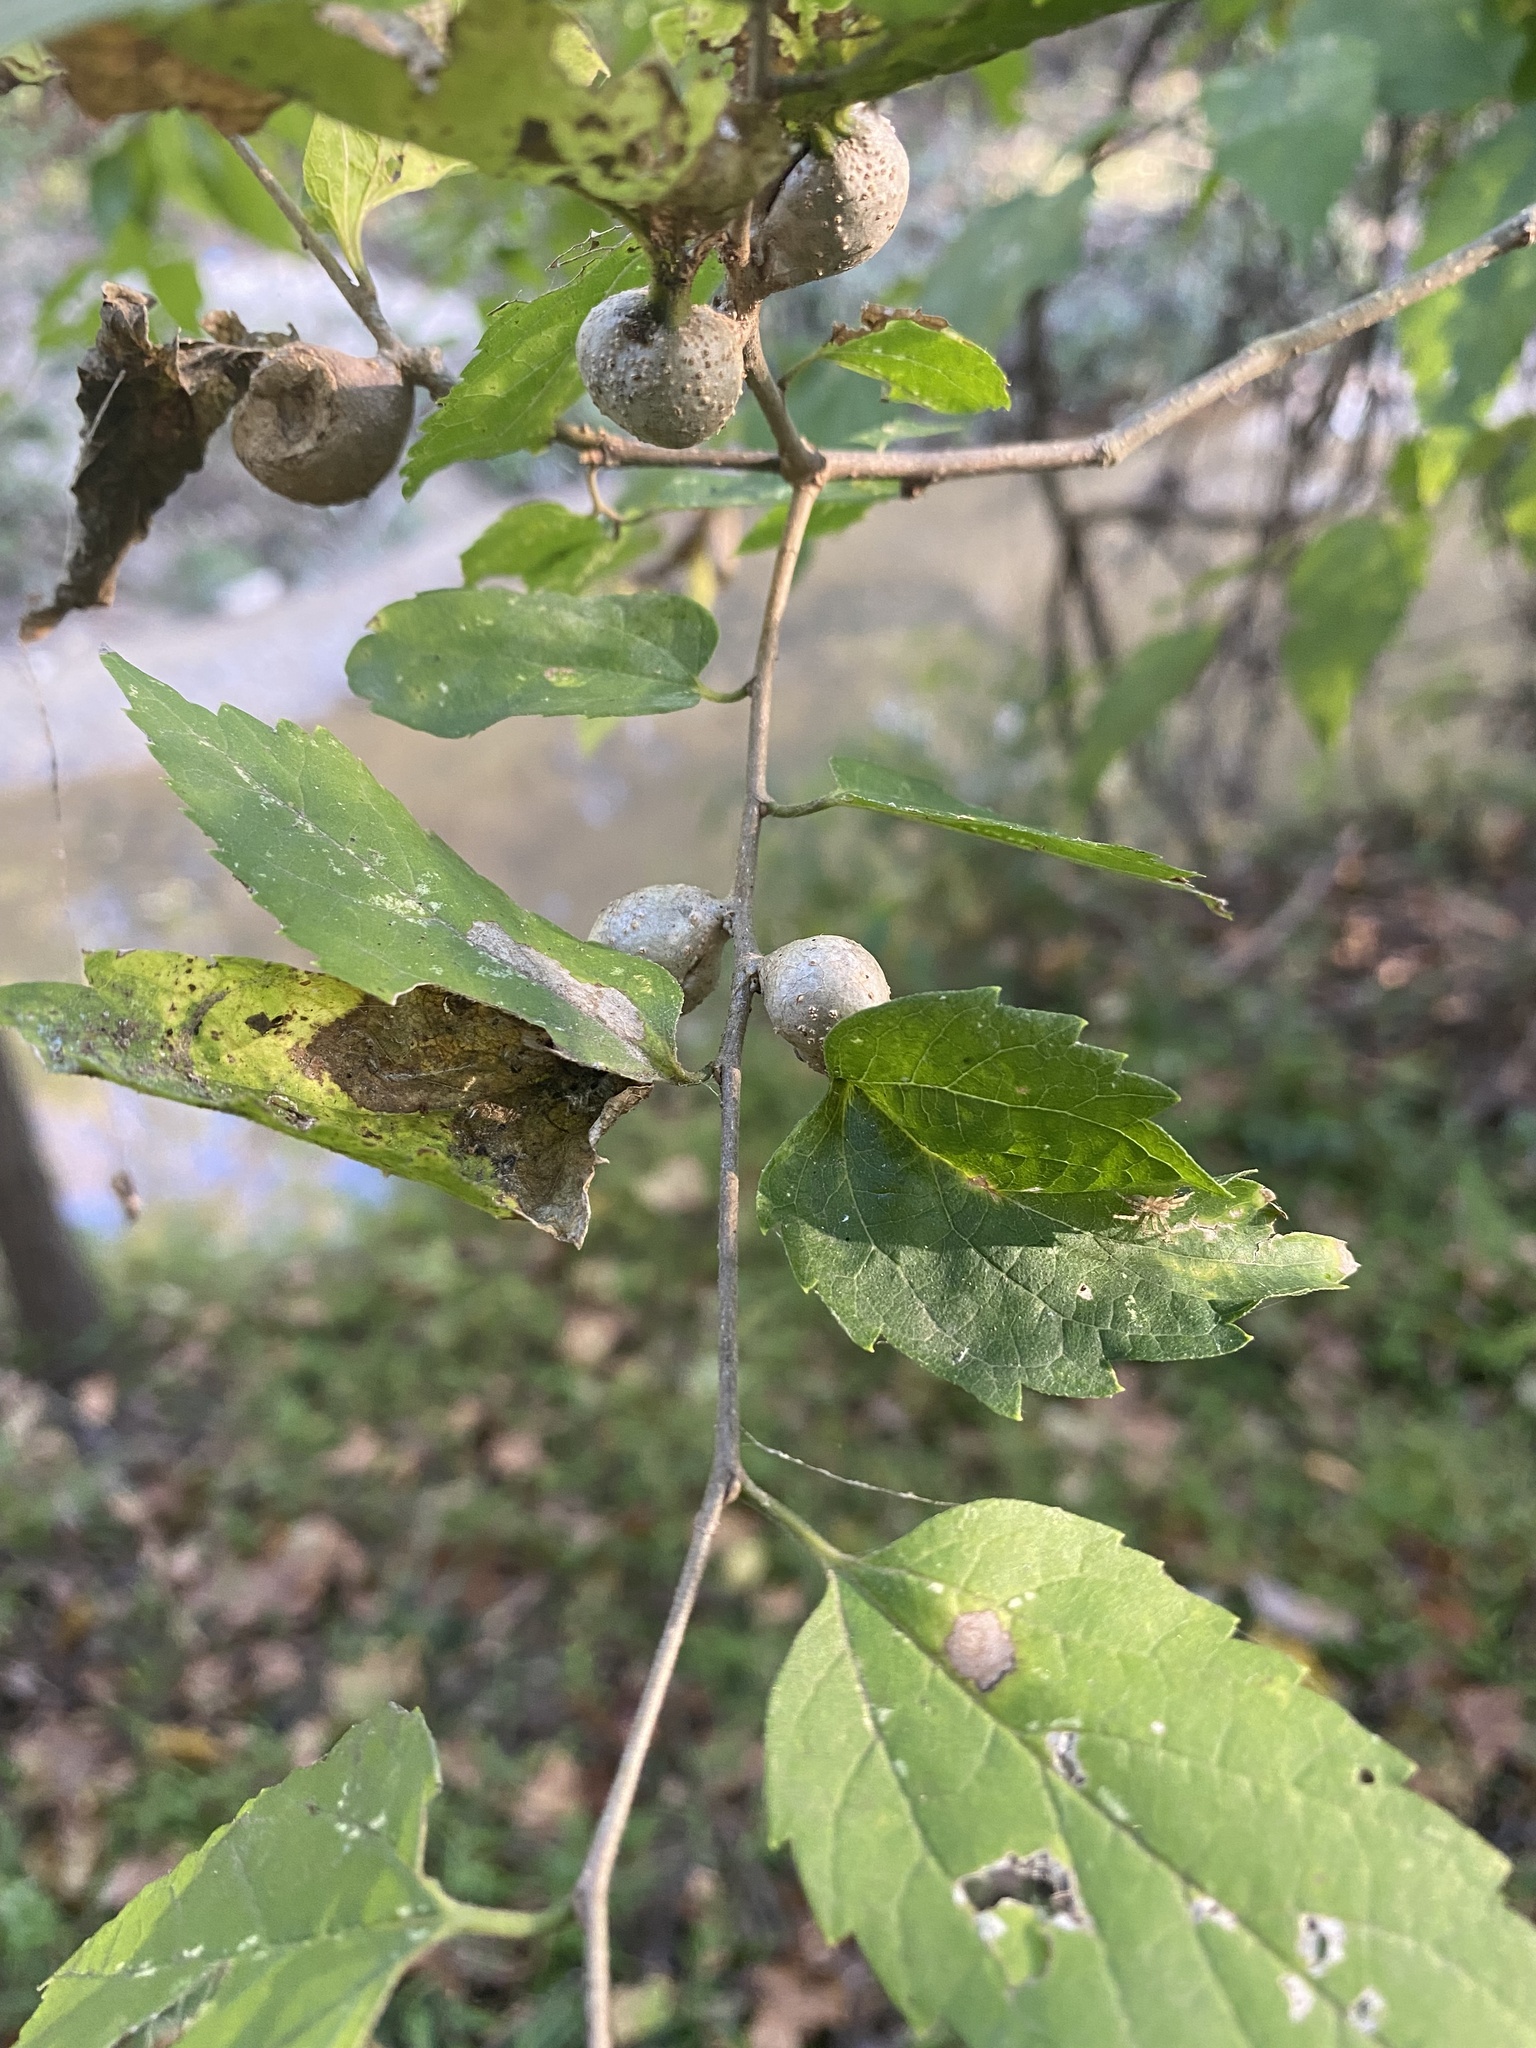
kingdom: Animalia
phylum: Arthropoda
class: Insecta
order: Hemiptera
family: Aphalaridae
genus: Pachypsylla
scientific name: Pachypsylla venusta
